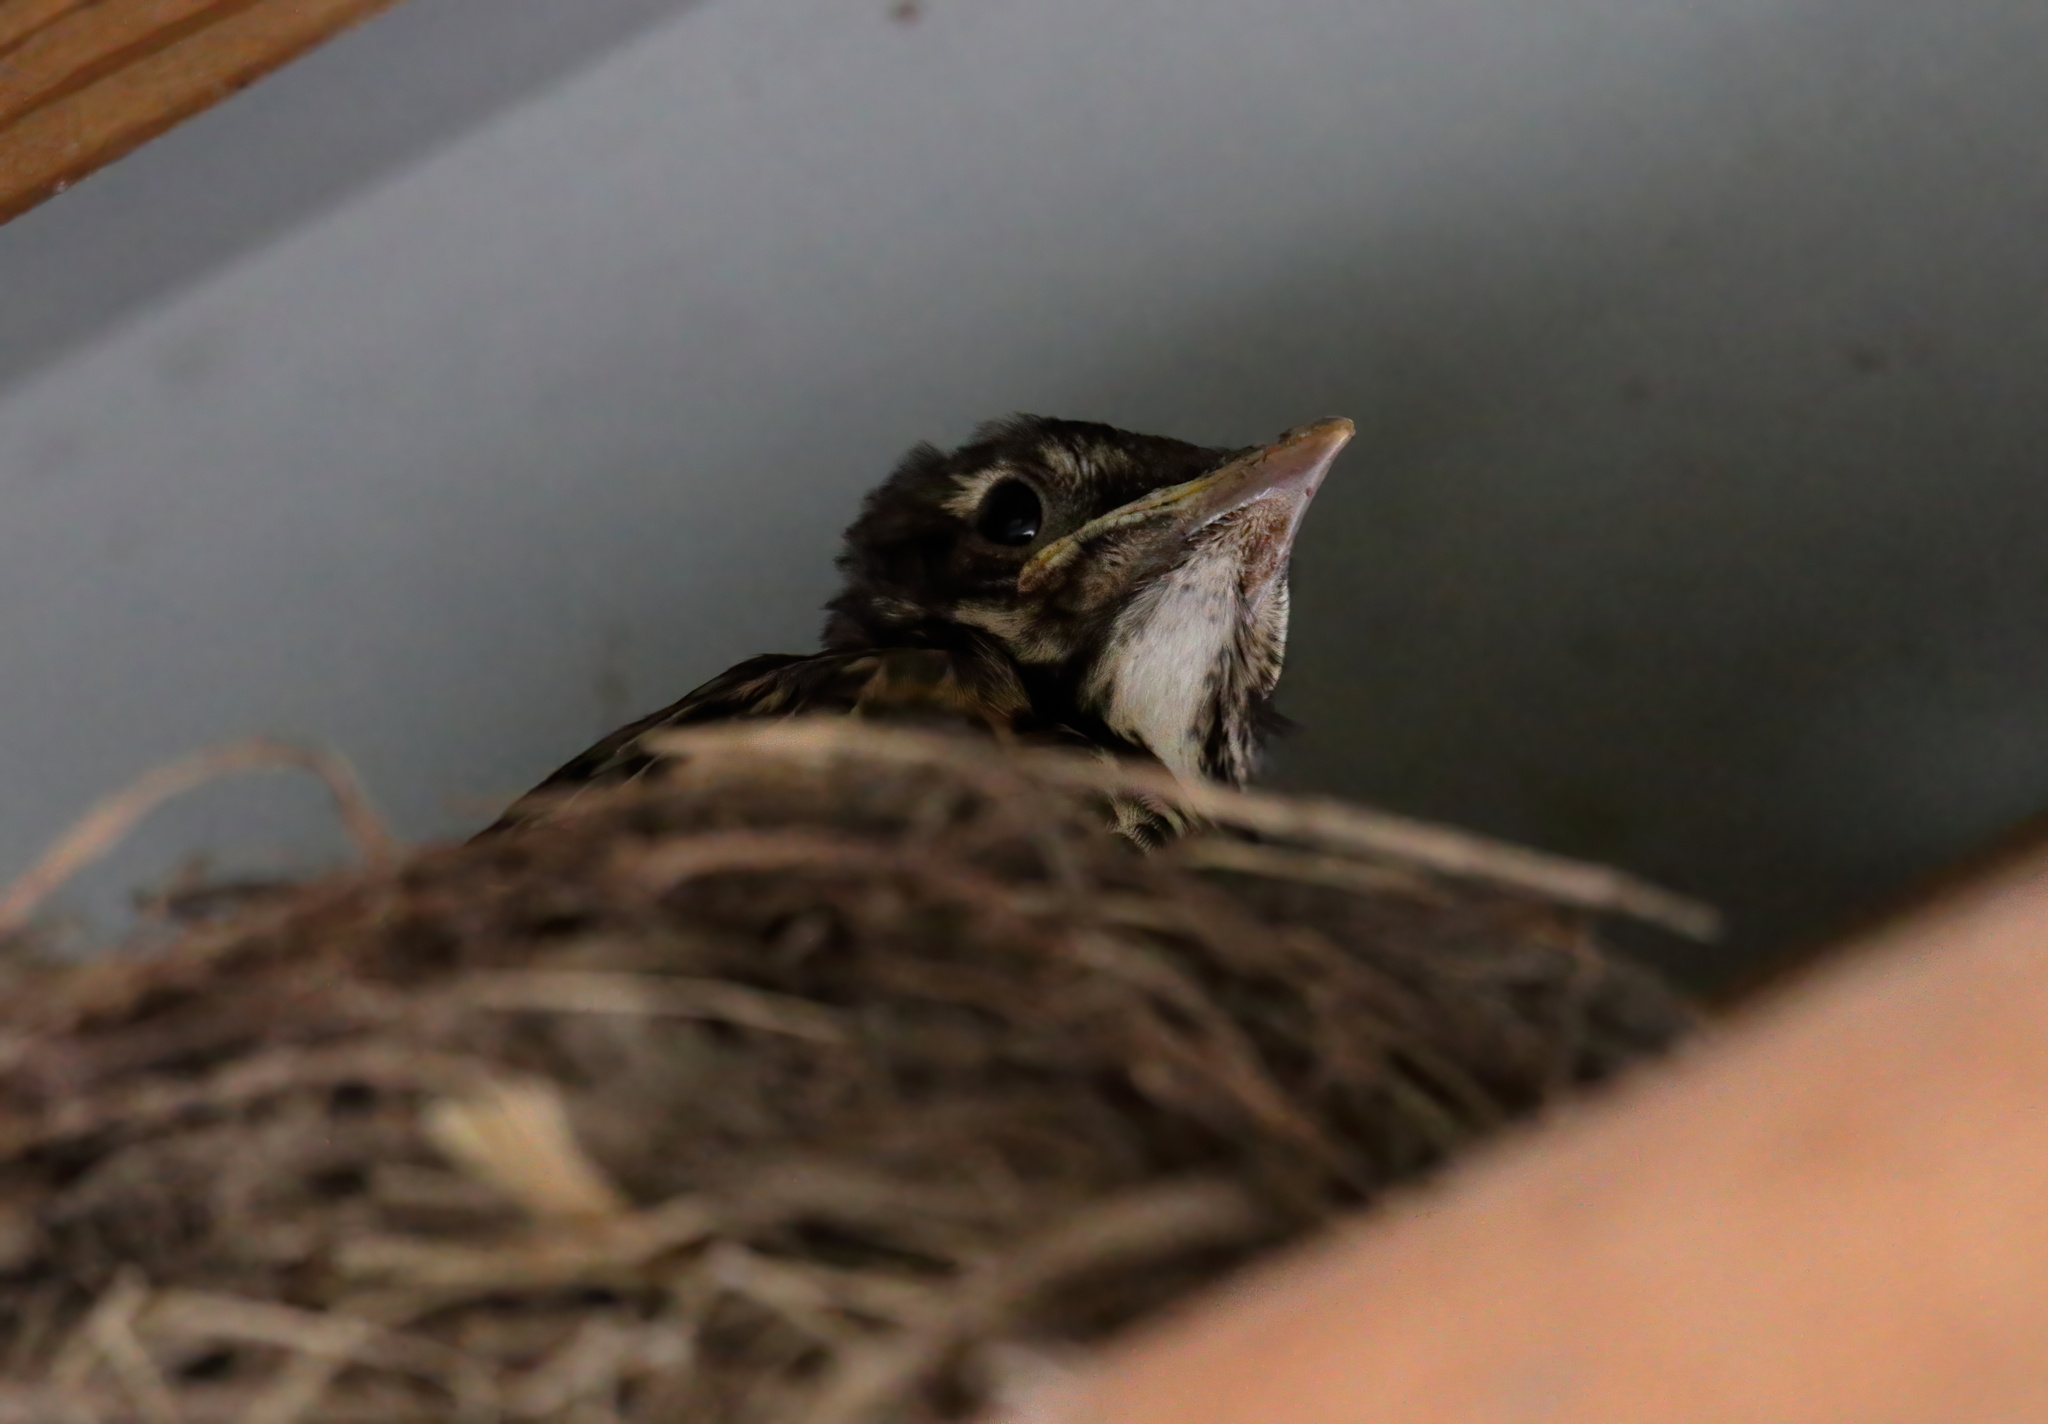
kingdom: Animalia
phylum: Chordata
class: Aves
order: Passeriformes
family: Turdidae
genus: Turdus
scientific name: Turdus migratorius
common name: American robin
